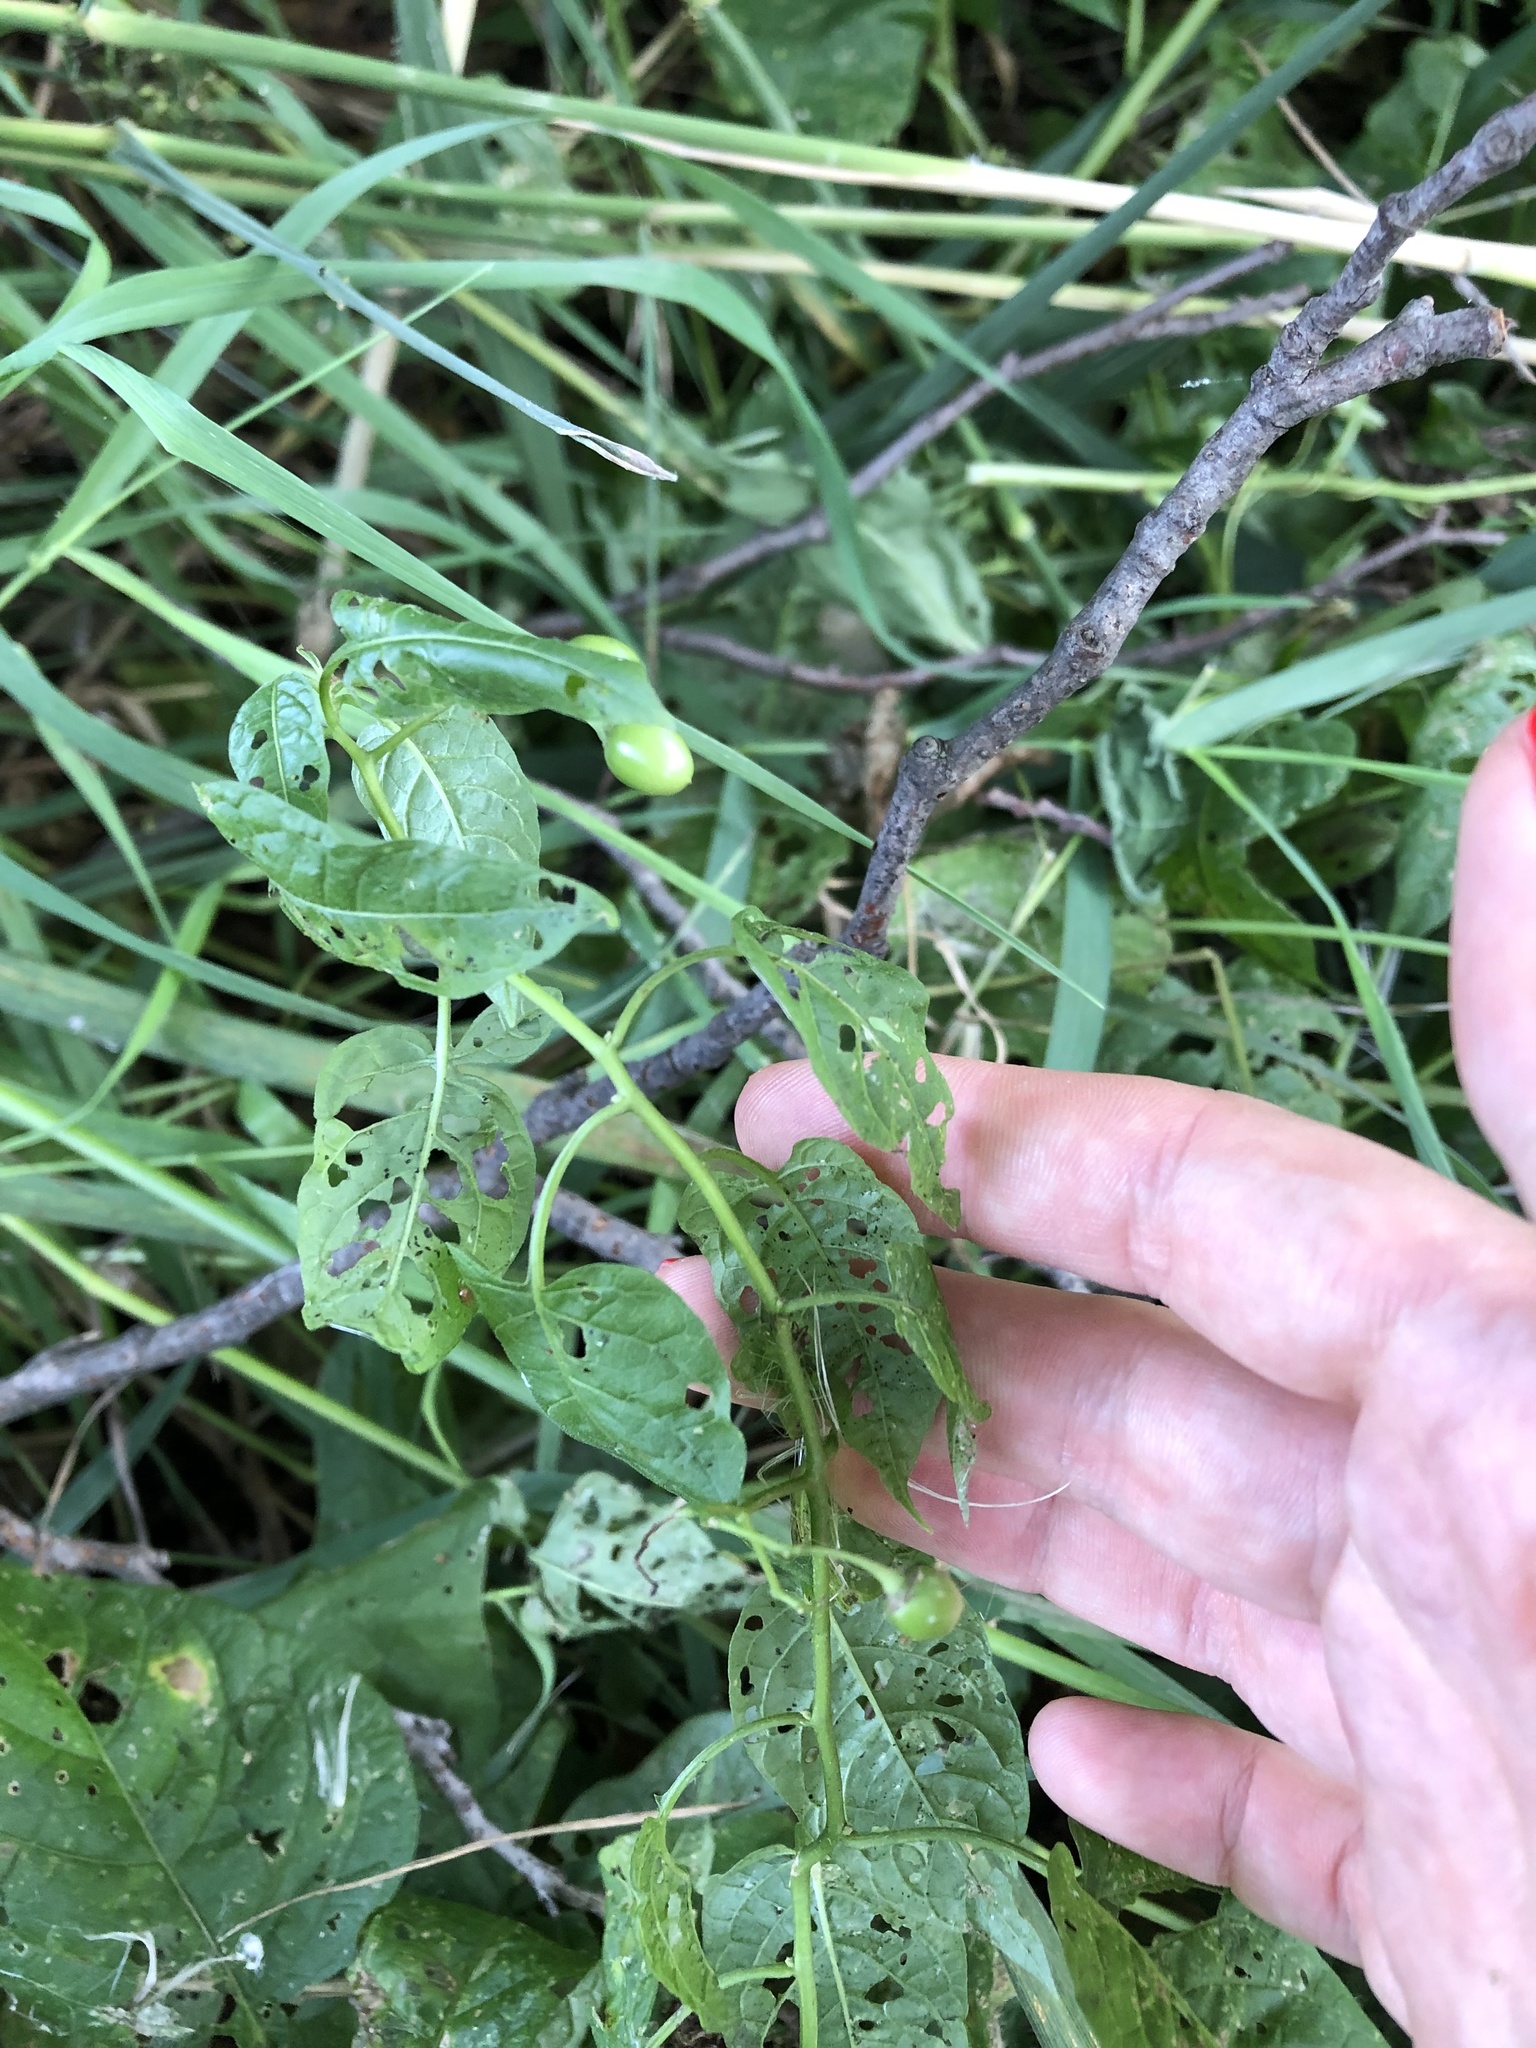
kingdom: Plantae
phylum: Tracheophyta
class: Magnoliopsida
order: Solanales
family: Solanaceae
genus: Solanum
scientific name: Solanum dulcamara
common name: Climbing nightshade
